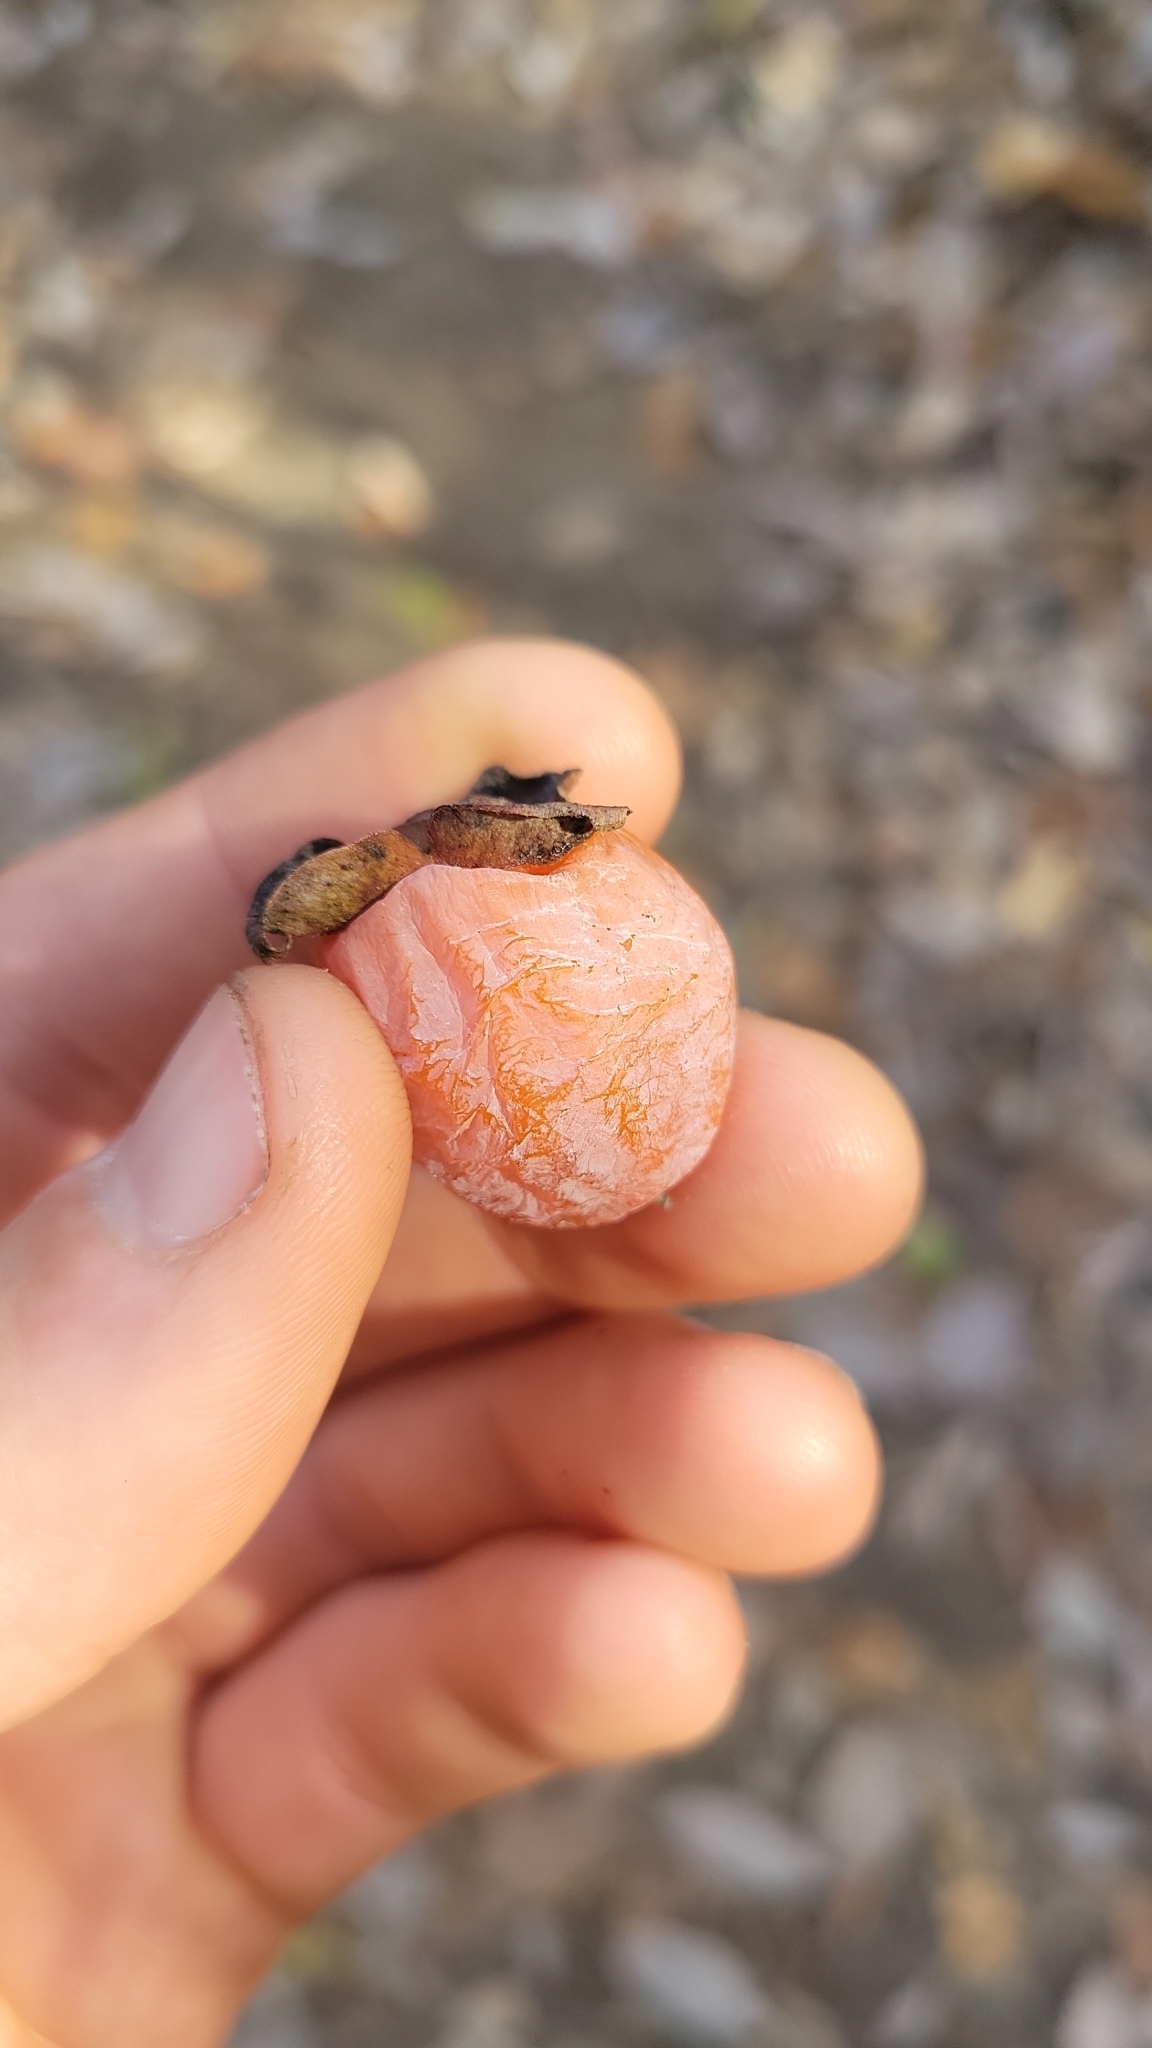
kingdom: Plantae
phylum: Tracheophyta
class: Magnoliopsida
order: Ericales
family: Ebenaceae
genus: Diospyros
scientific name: Diospyros virginiana
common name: Persimmon
